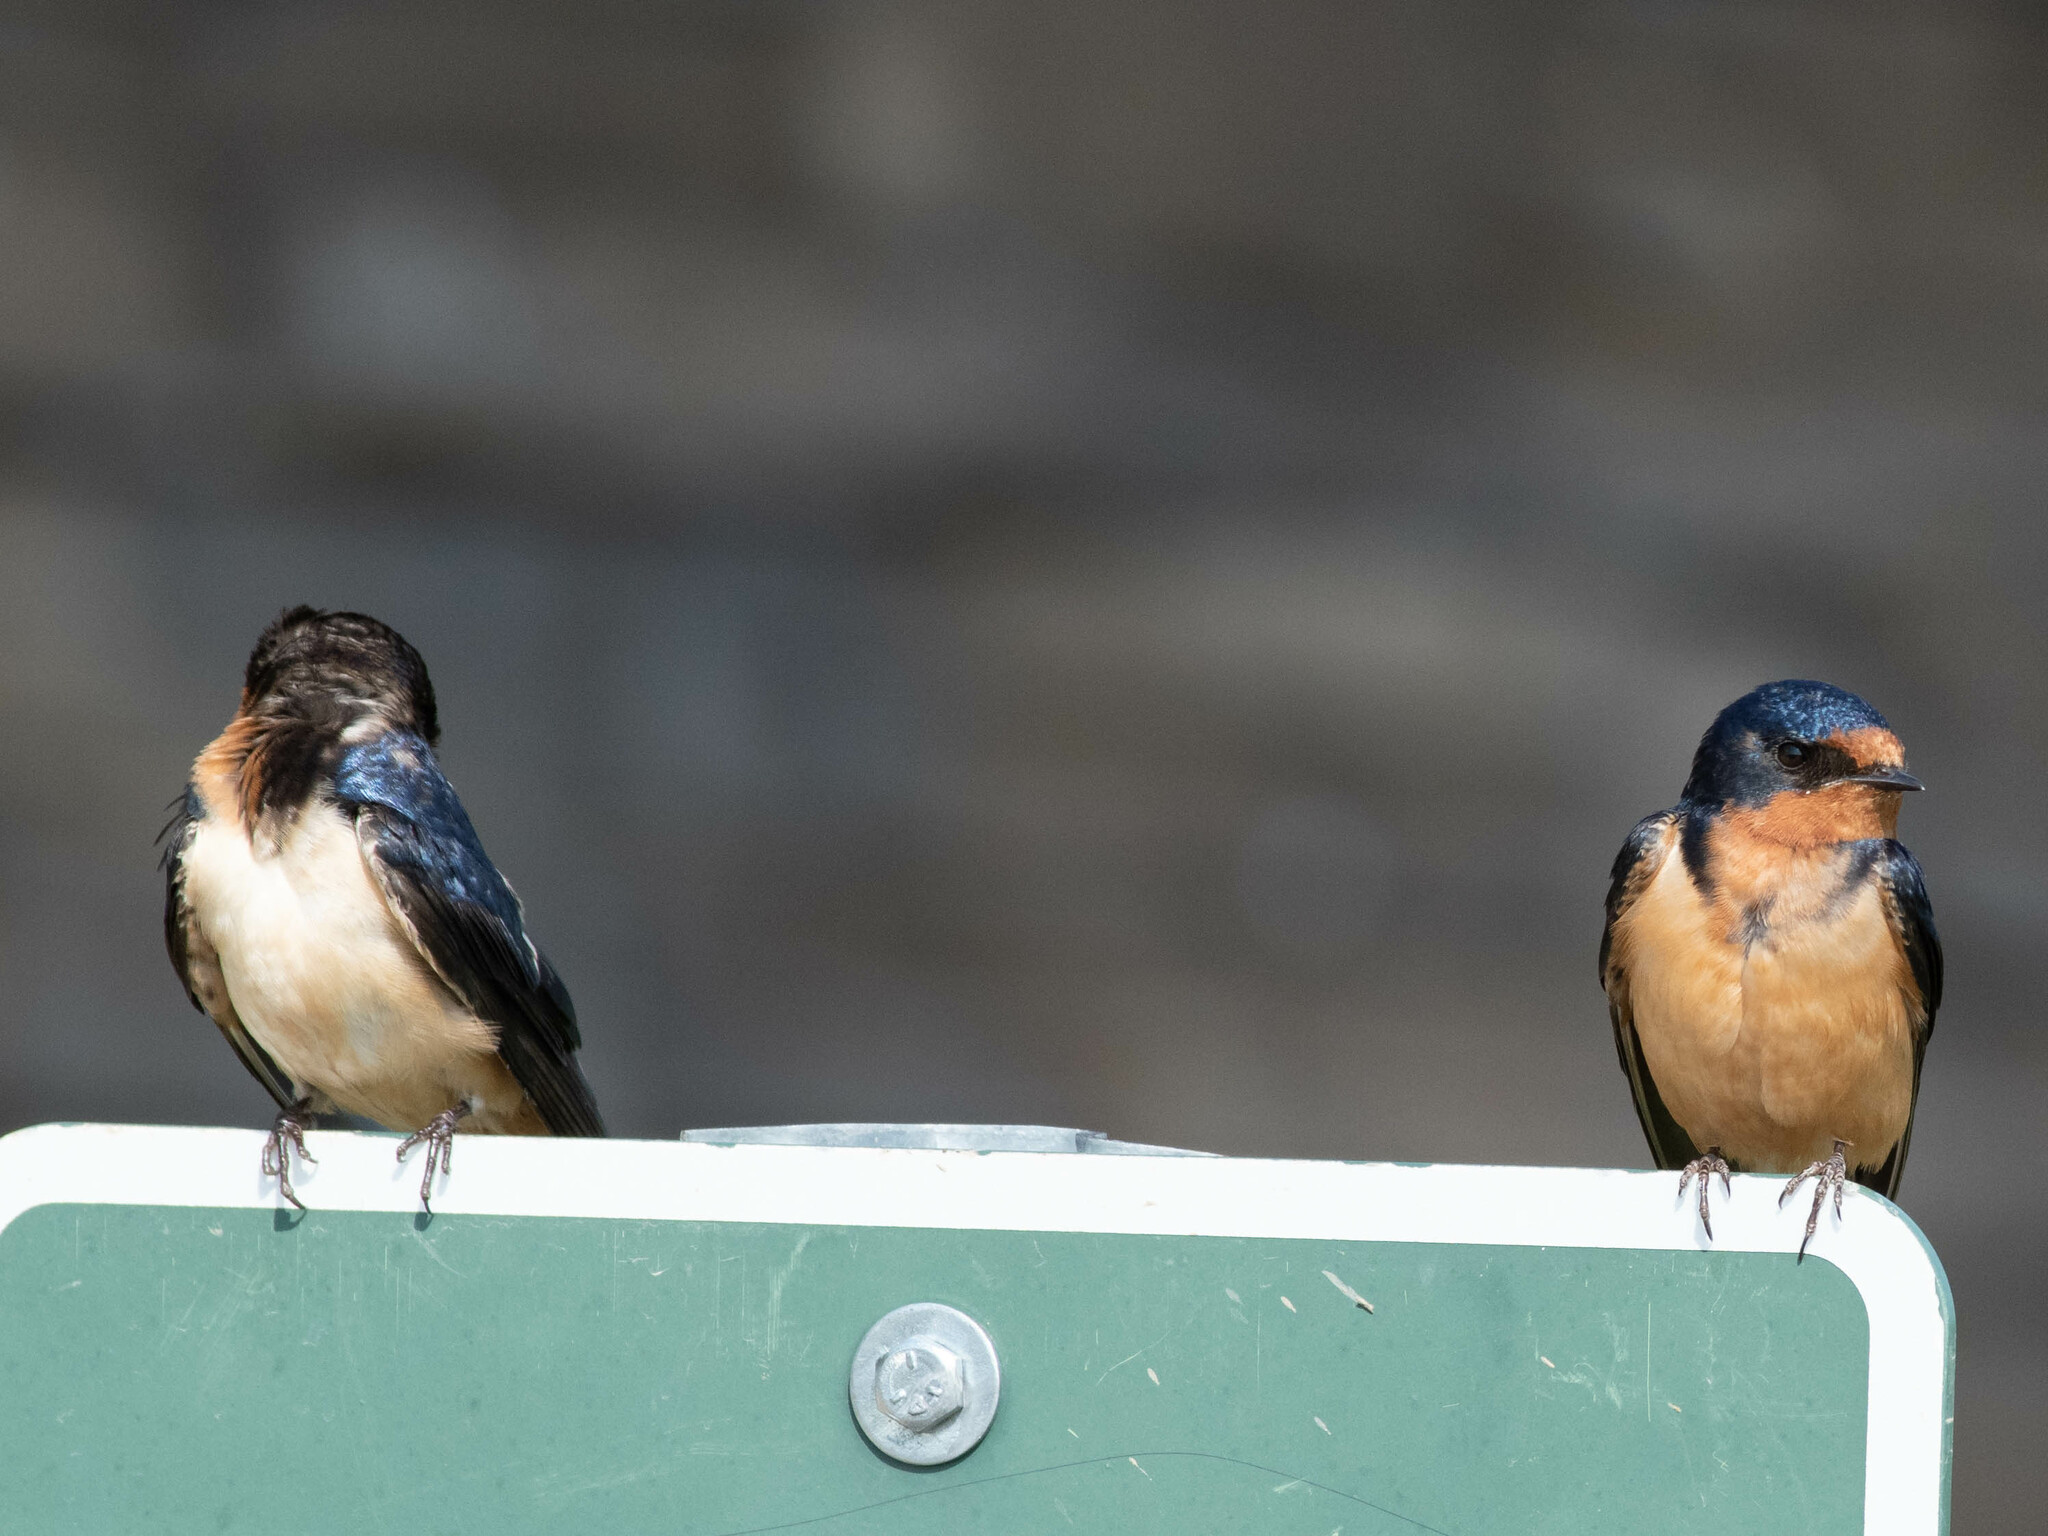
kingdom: Animalia
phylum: Chordata
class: Aves
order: Passeriformes
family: Hirundinidae
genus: Hirundo
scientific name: Hirundo rustica
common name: Barn swallow
